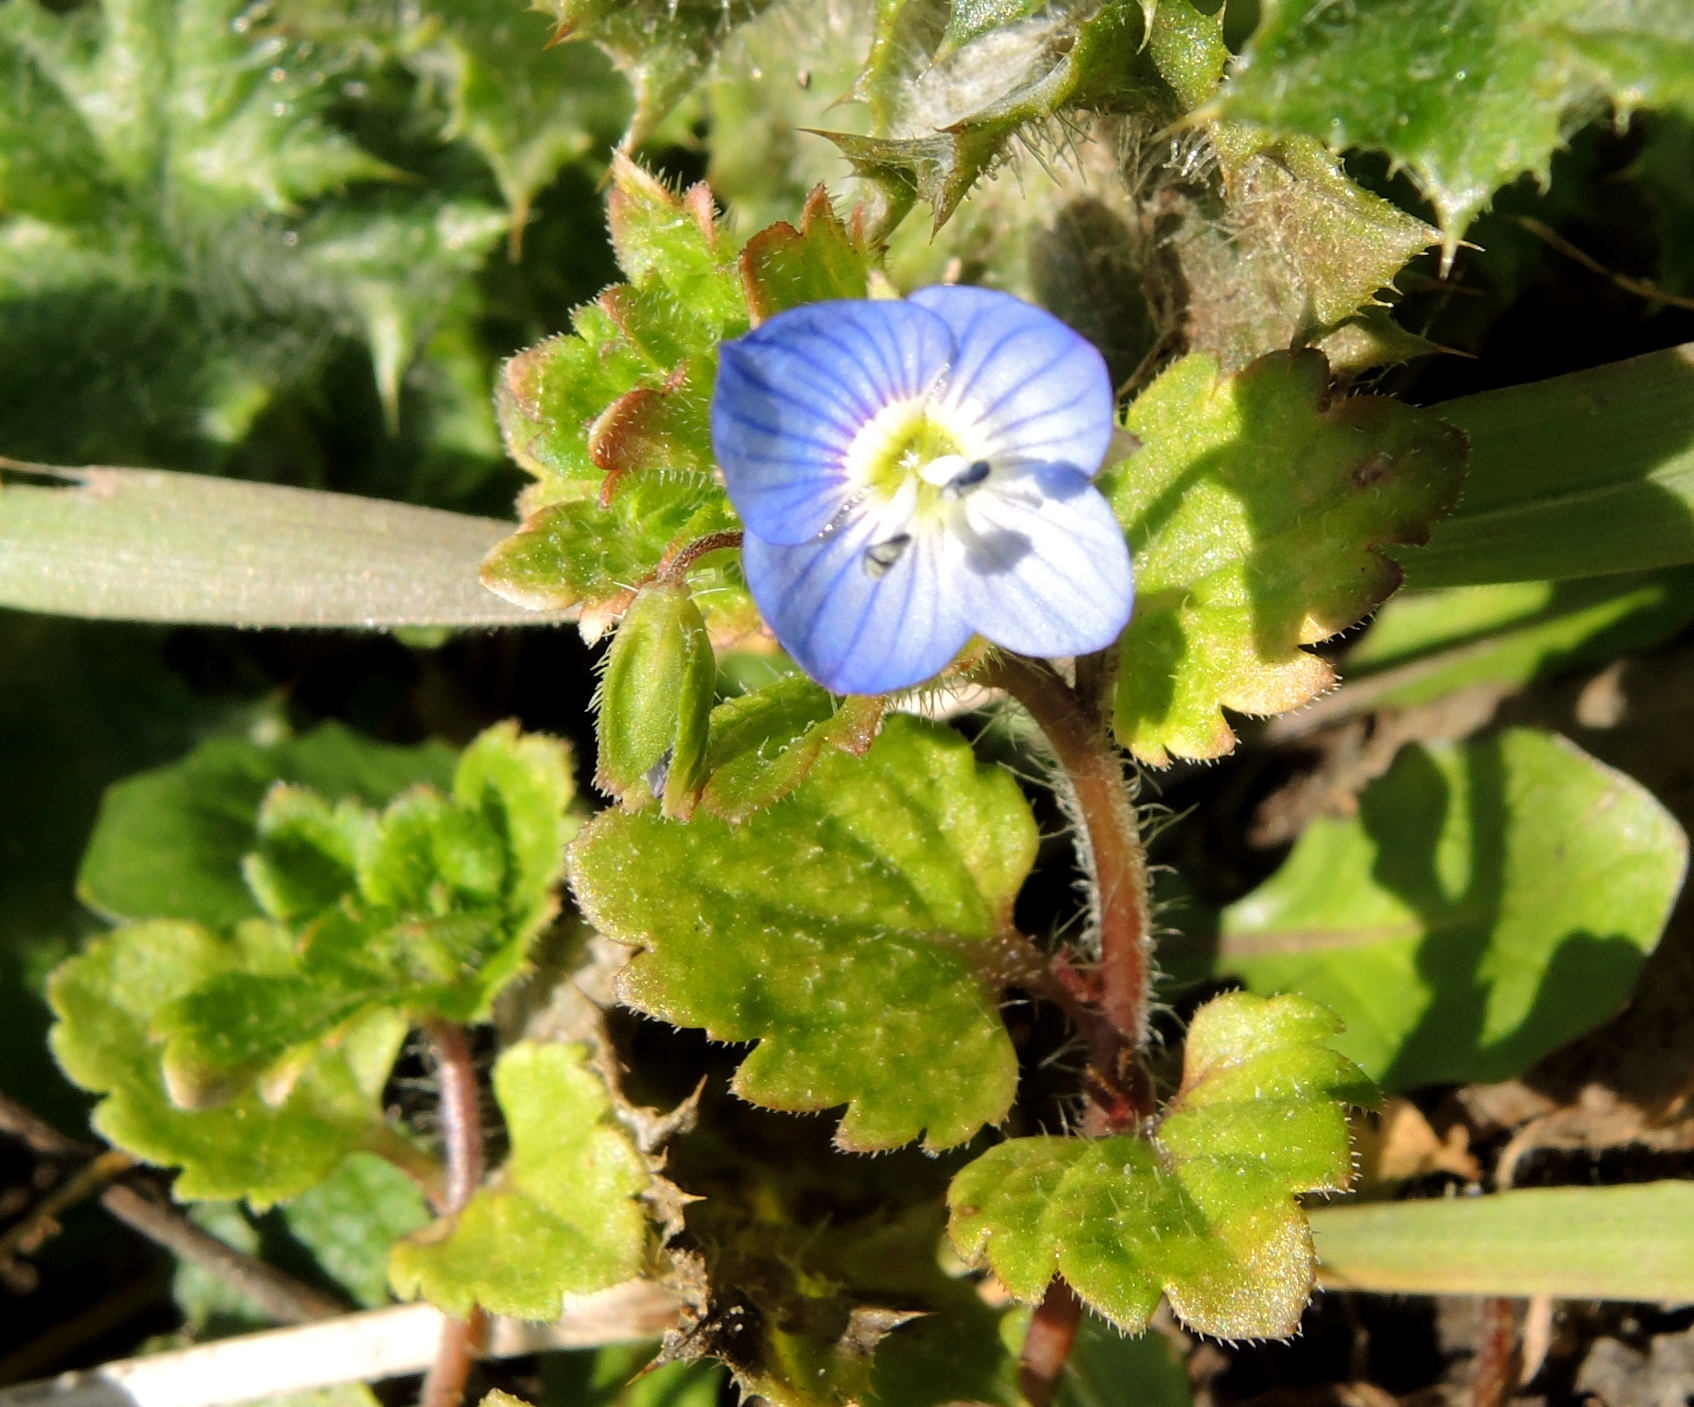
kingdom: Plantae
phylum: Tracheophyta
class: Magnoliopsida
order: Lamiales
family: Plantaginaceae
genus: Veronica
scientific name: Veronica persica
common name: Common field-speedwell
